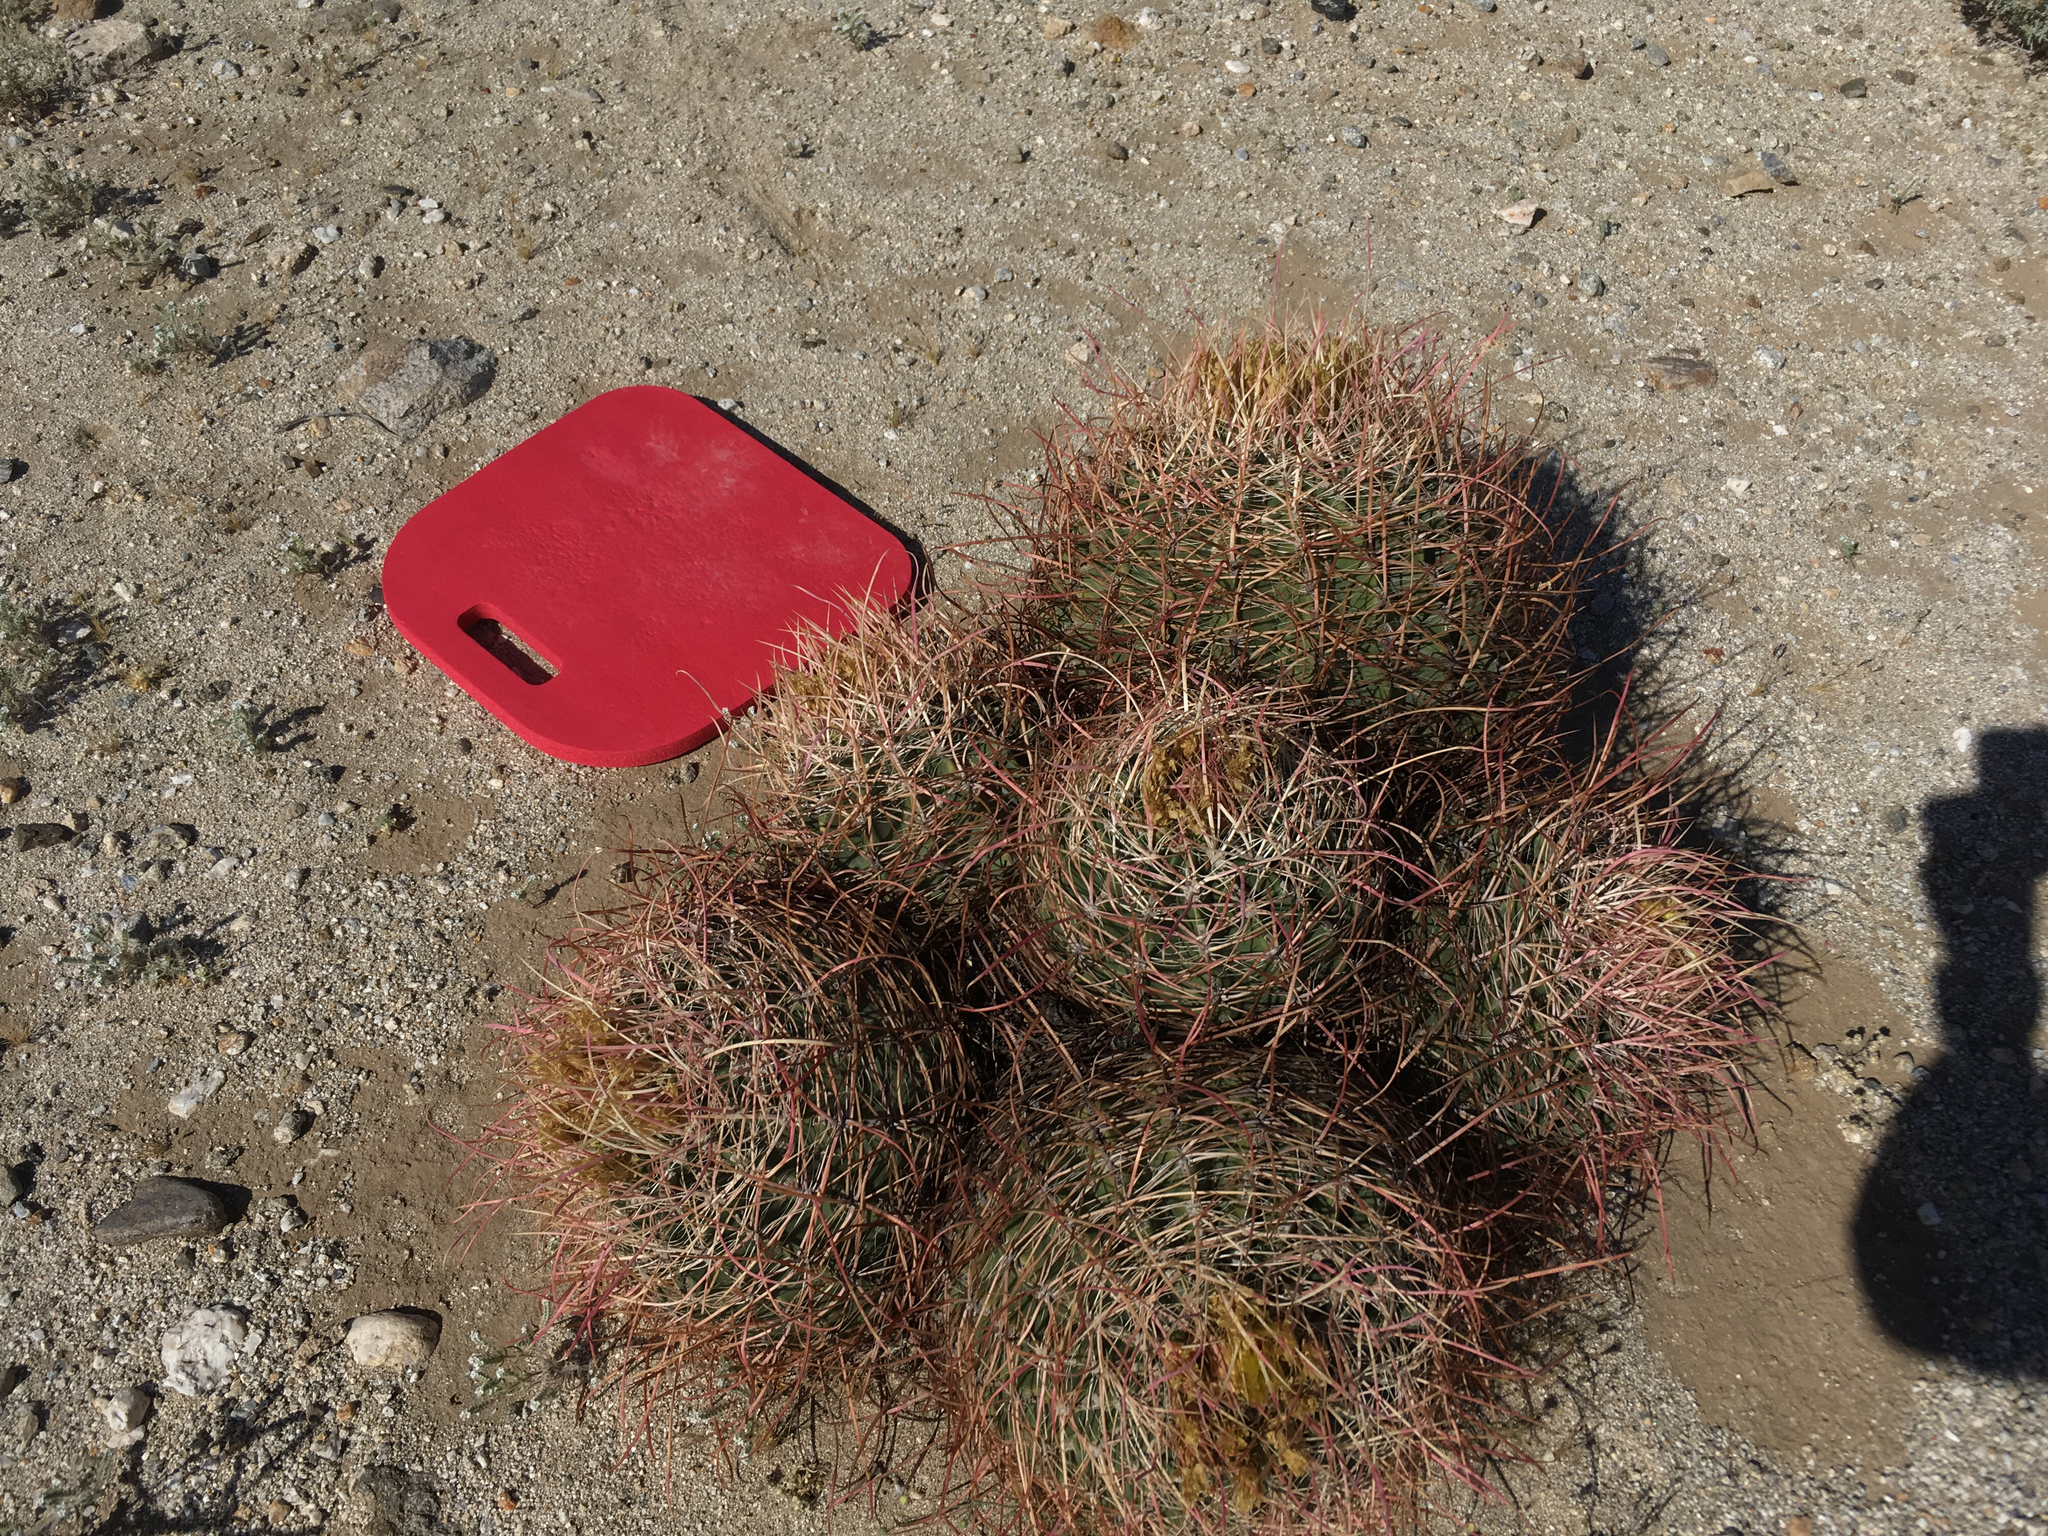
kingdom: Plantae
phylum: Tracheophyta
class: Magnoliopsida
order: Caryophyllales
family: Cactaceae
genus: Ferocactus
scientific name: Ferocactus cylindraceus
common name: California barrel cactus
